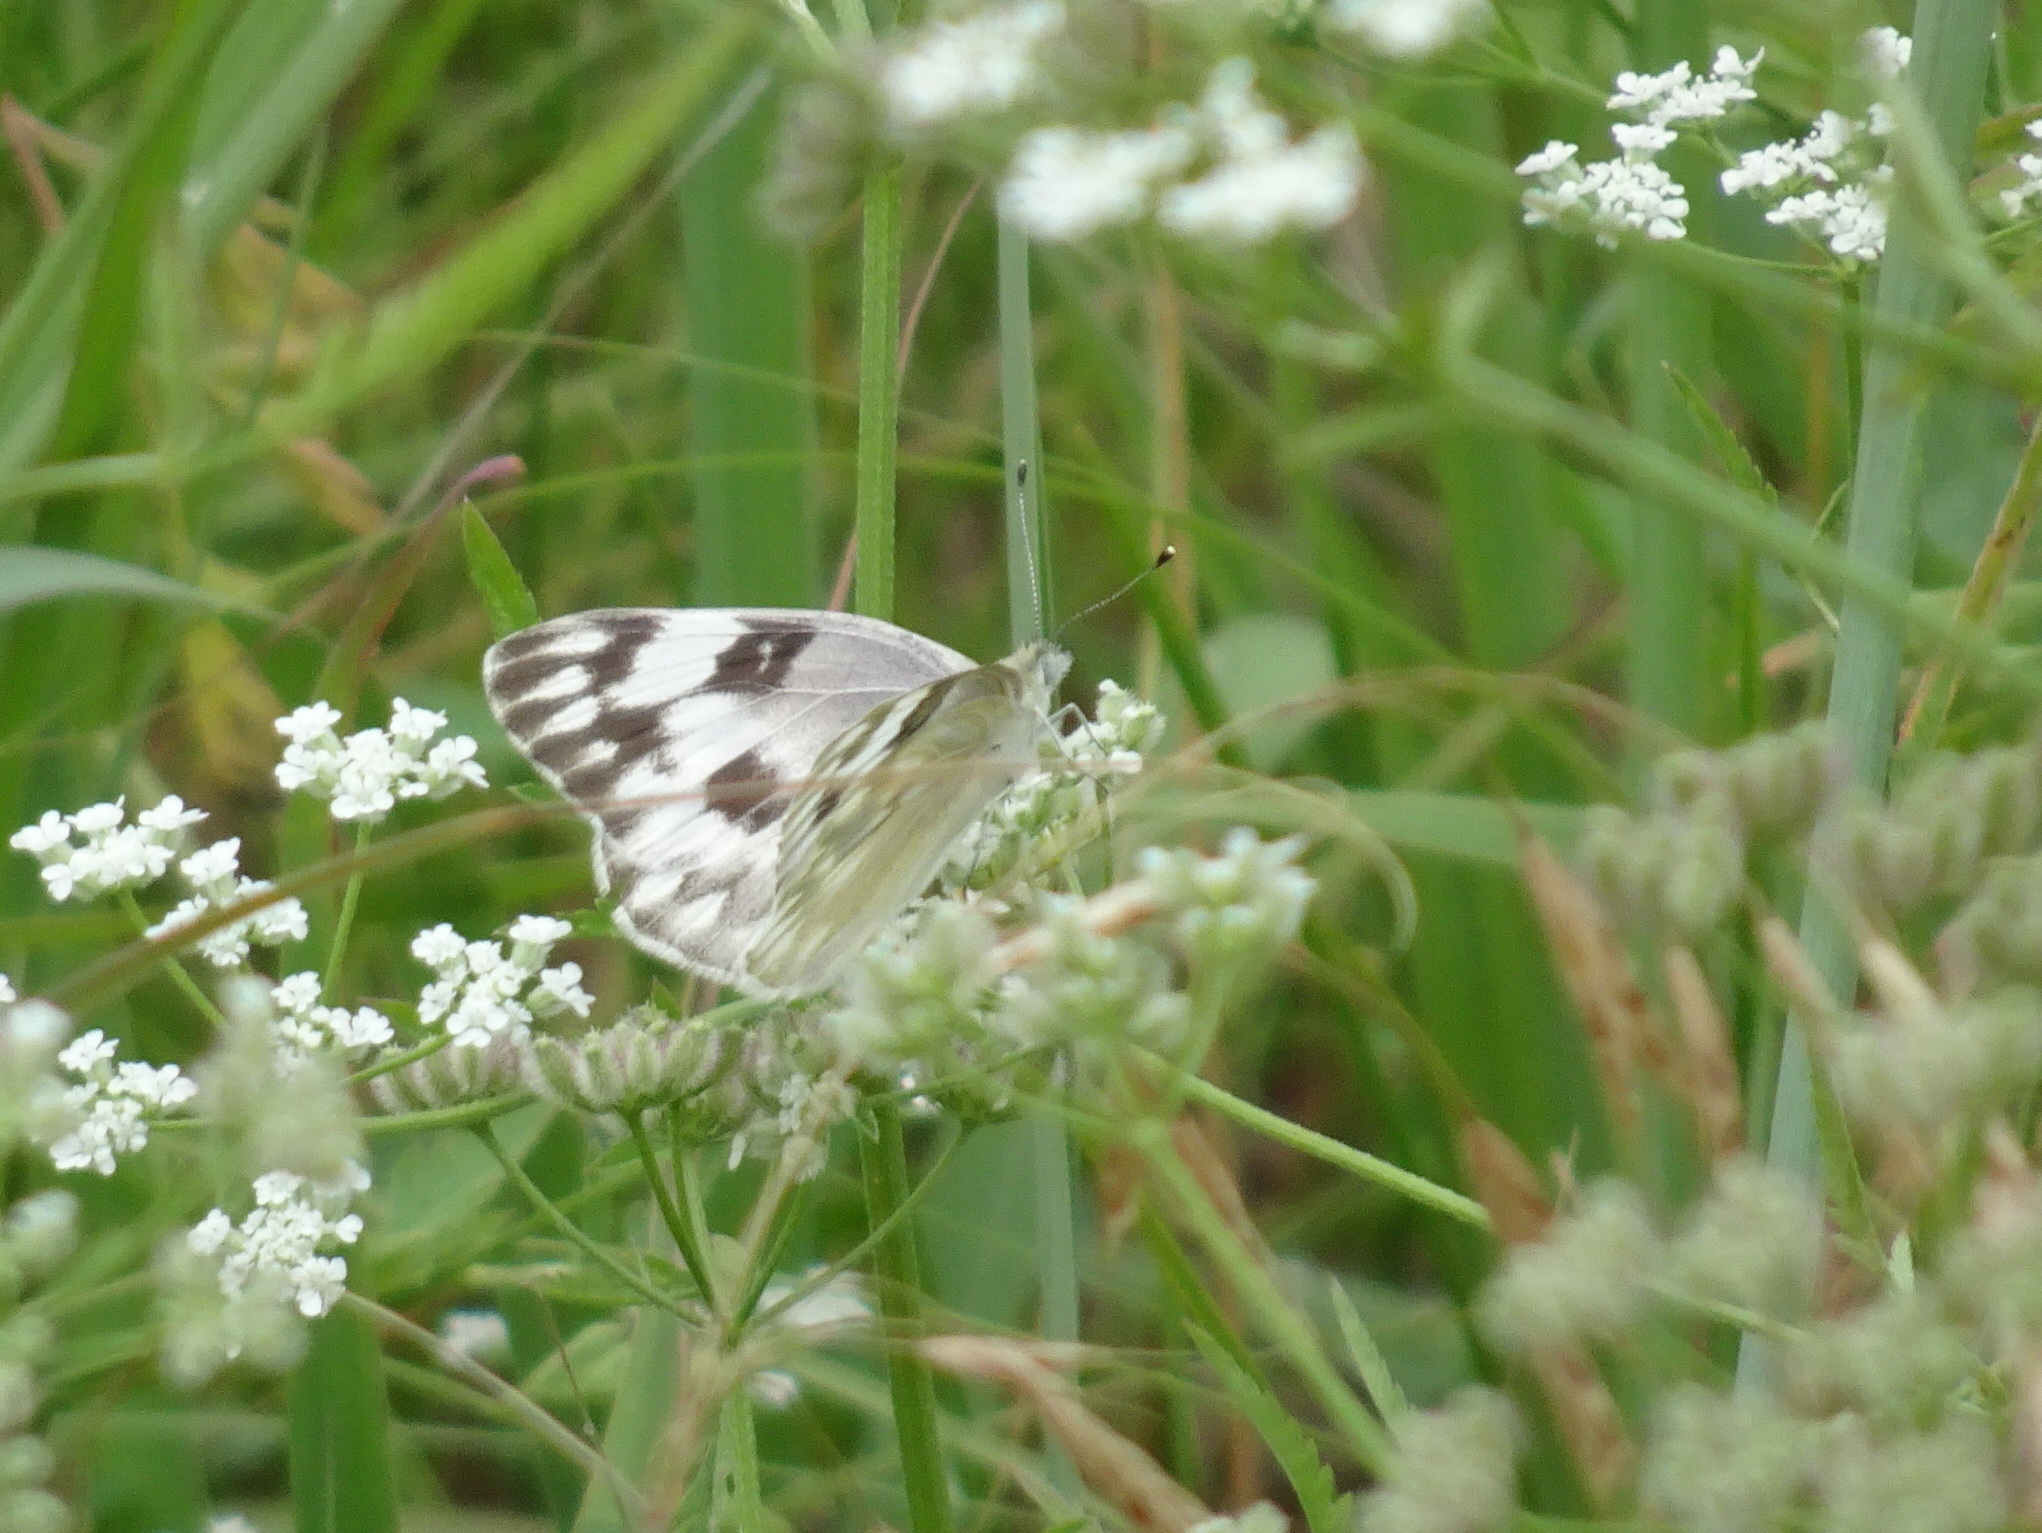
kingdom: Animalia
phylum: Arthropoda
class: Insecta
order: Lepidoptera
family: Pieridae
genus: Pontia
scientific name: Pontia protodice
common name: Checkered white
